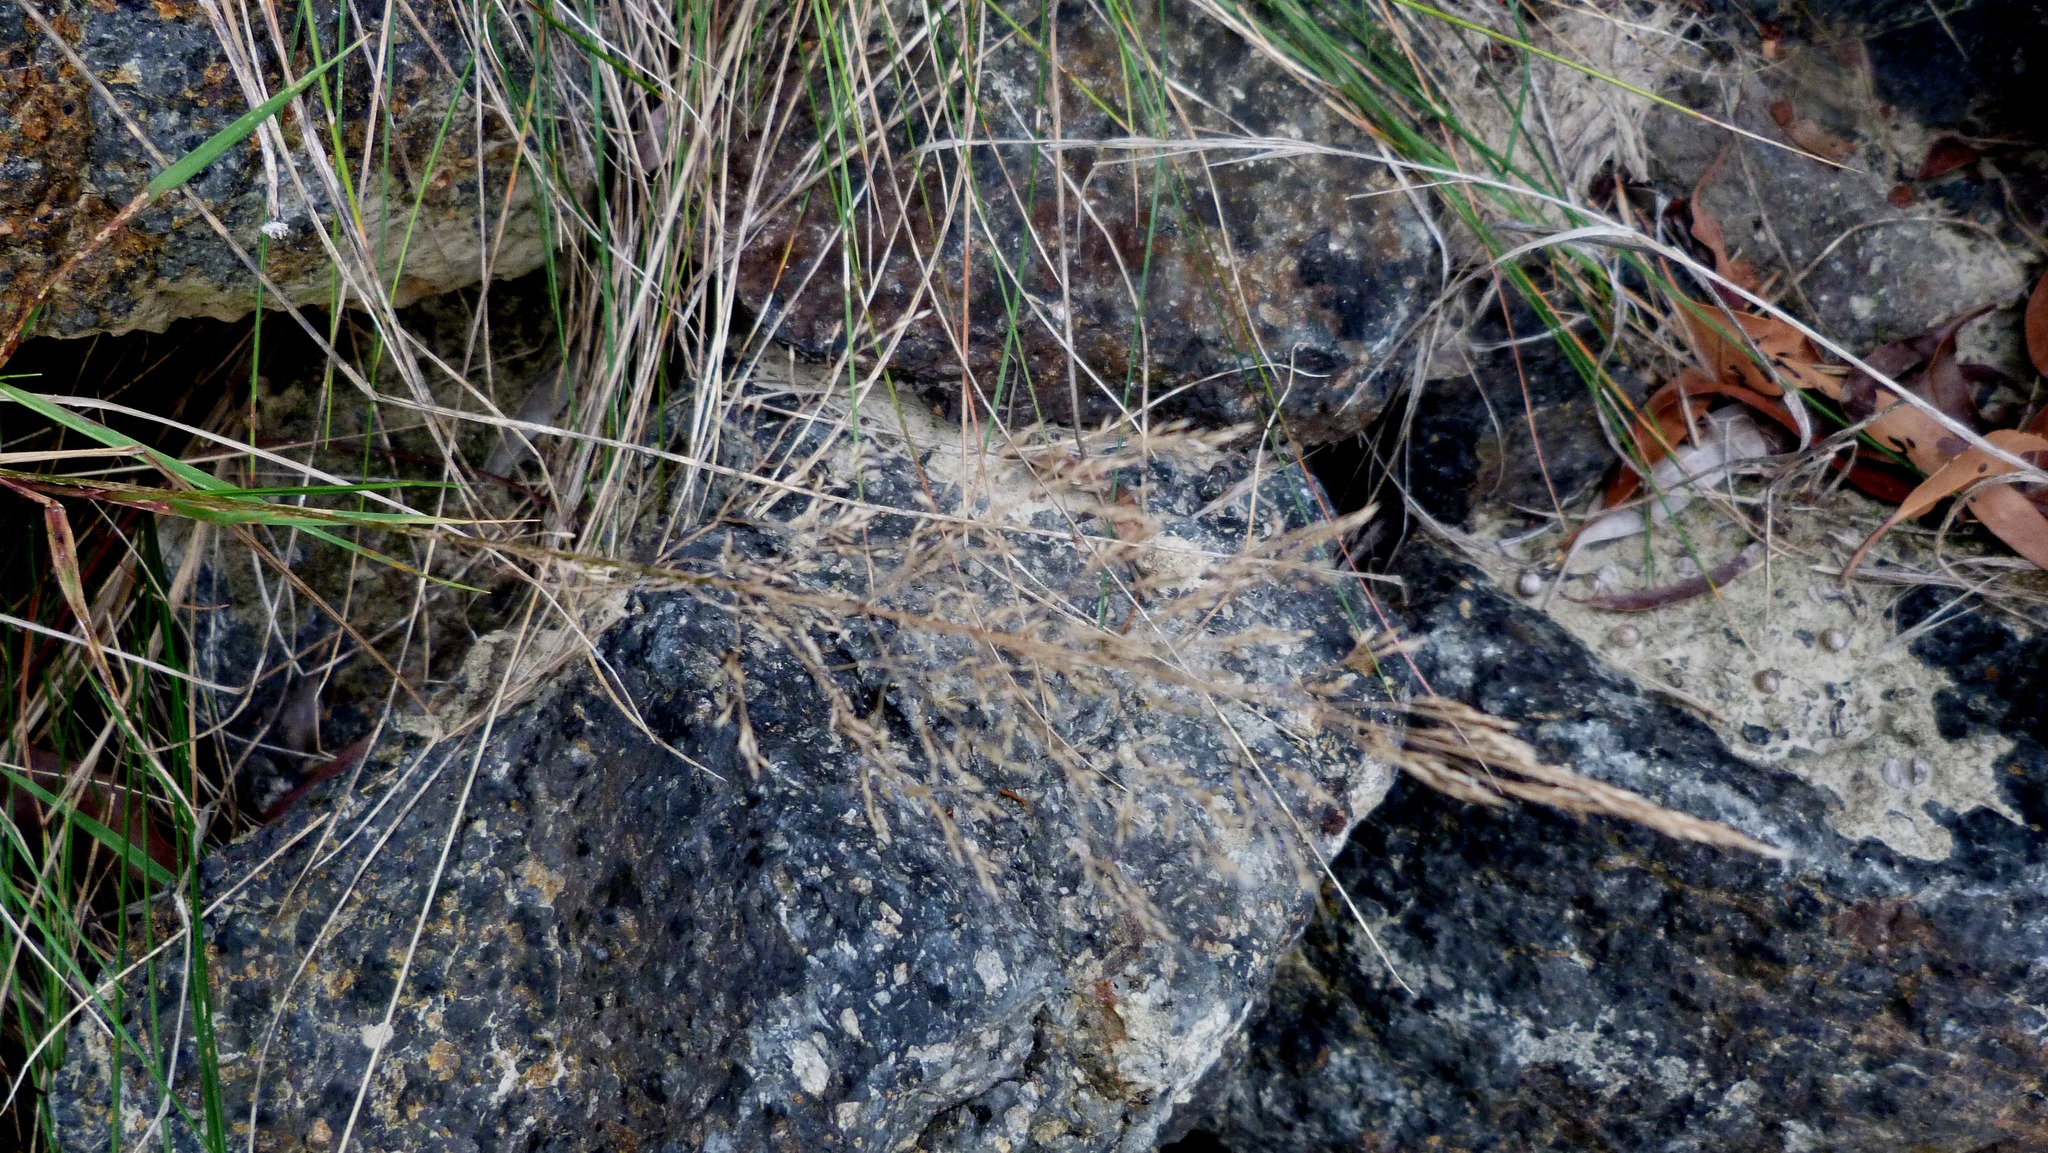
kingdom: Plantae
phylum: Tracheophyta
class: Liliopsida
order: Poales
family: Poaceae
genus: Agrostis
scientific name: Agrostis capillaris
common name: Colonial bentgrass
